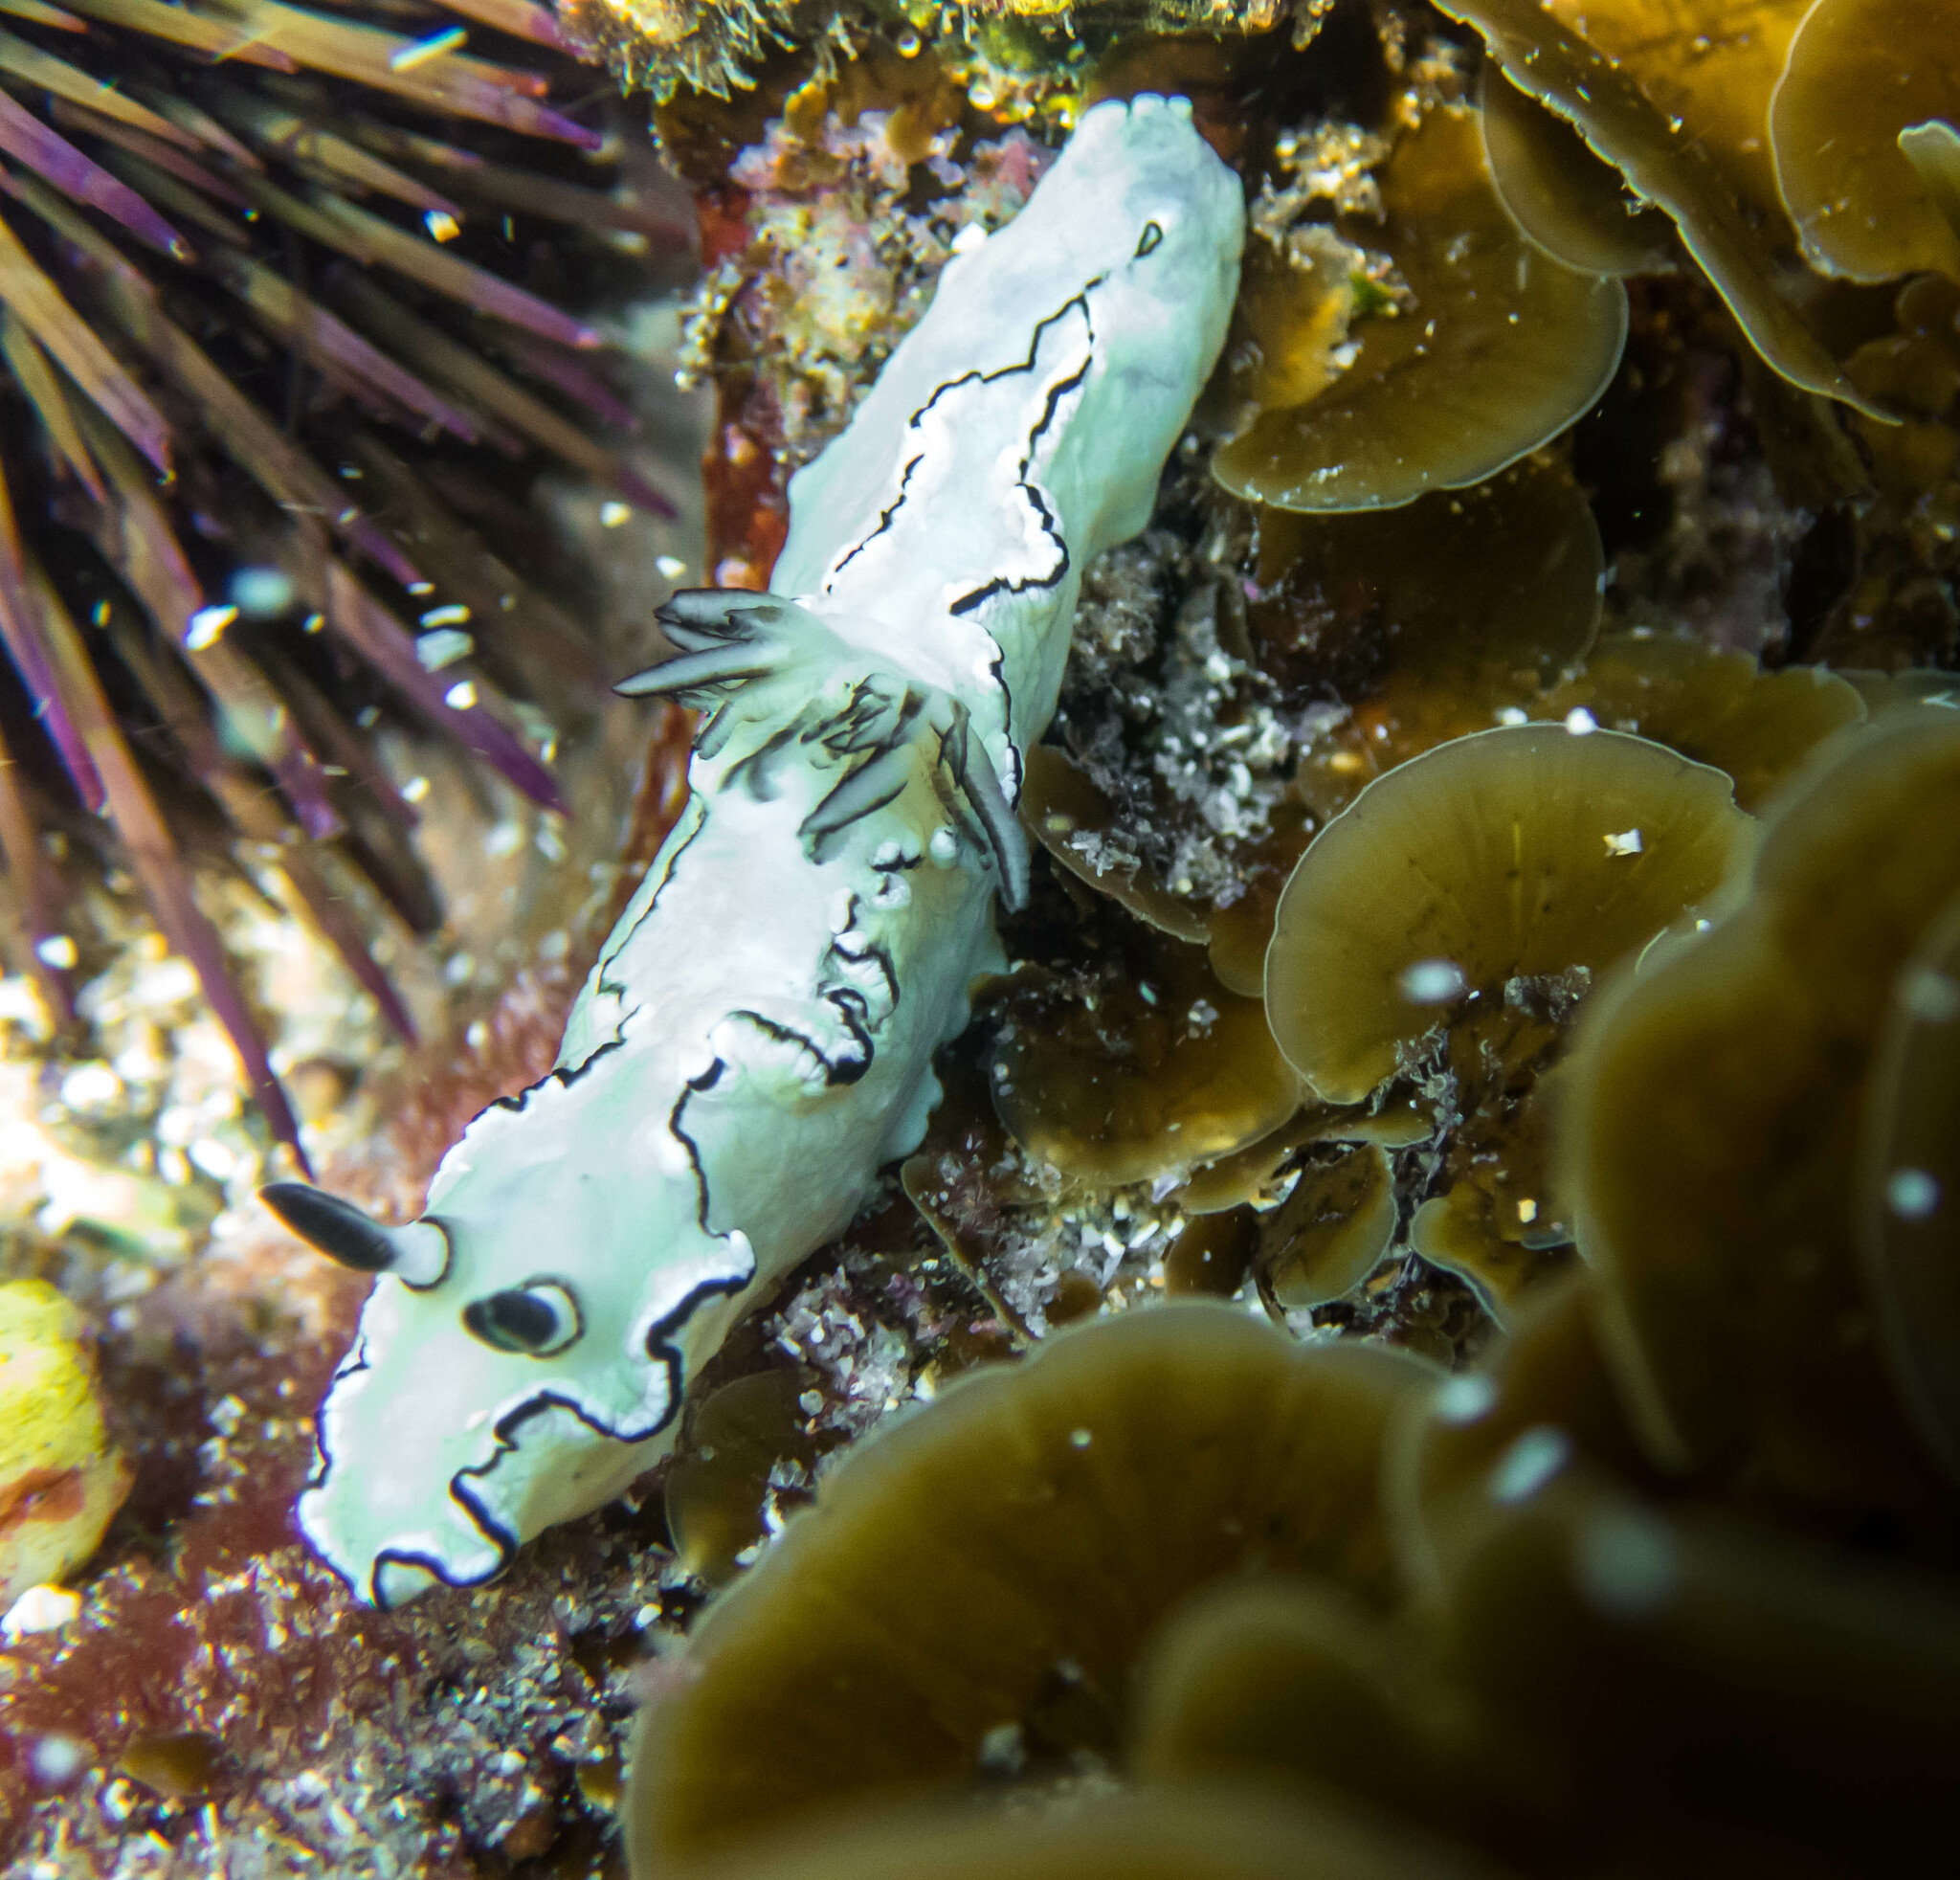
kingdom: Animalia
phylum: Mollusca
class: Gastropoda
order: Nudibranchia
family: Chromodorididae
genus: Doriprismatica
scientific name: Doriprismatica atromarginata
